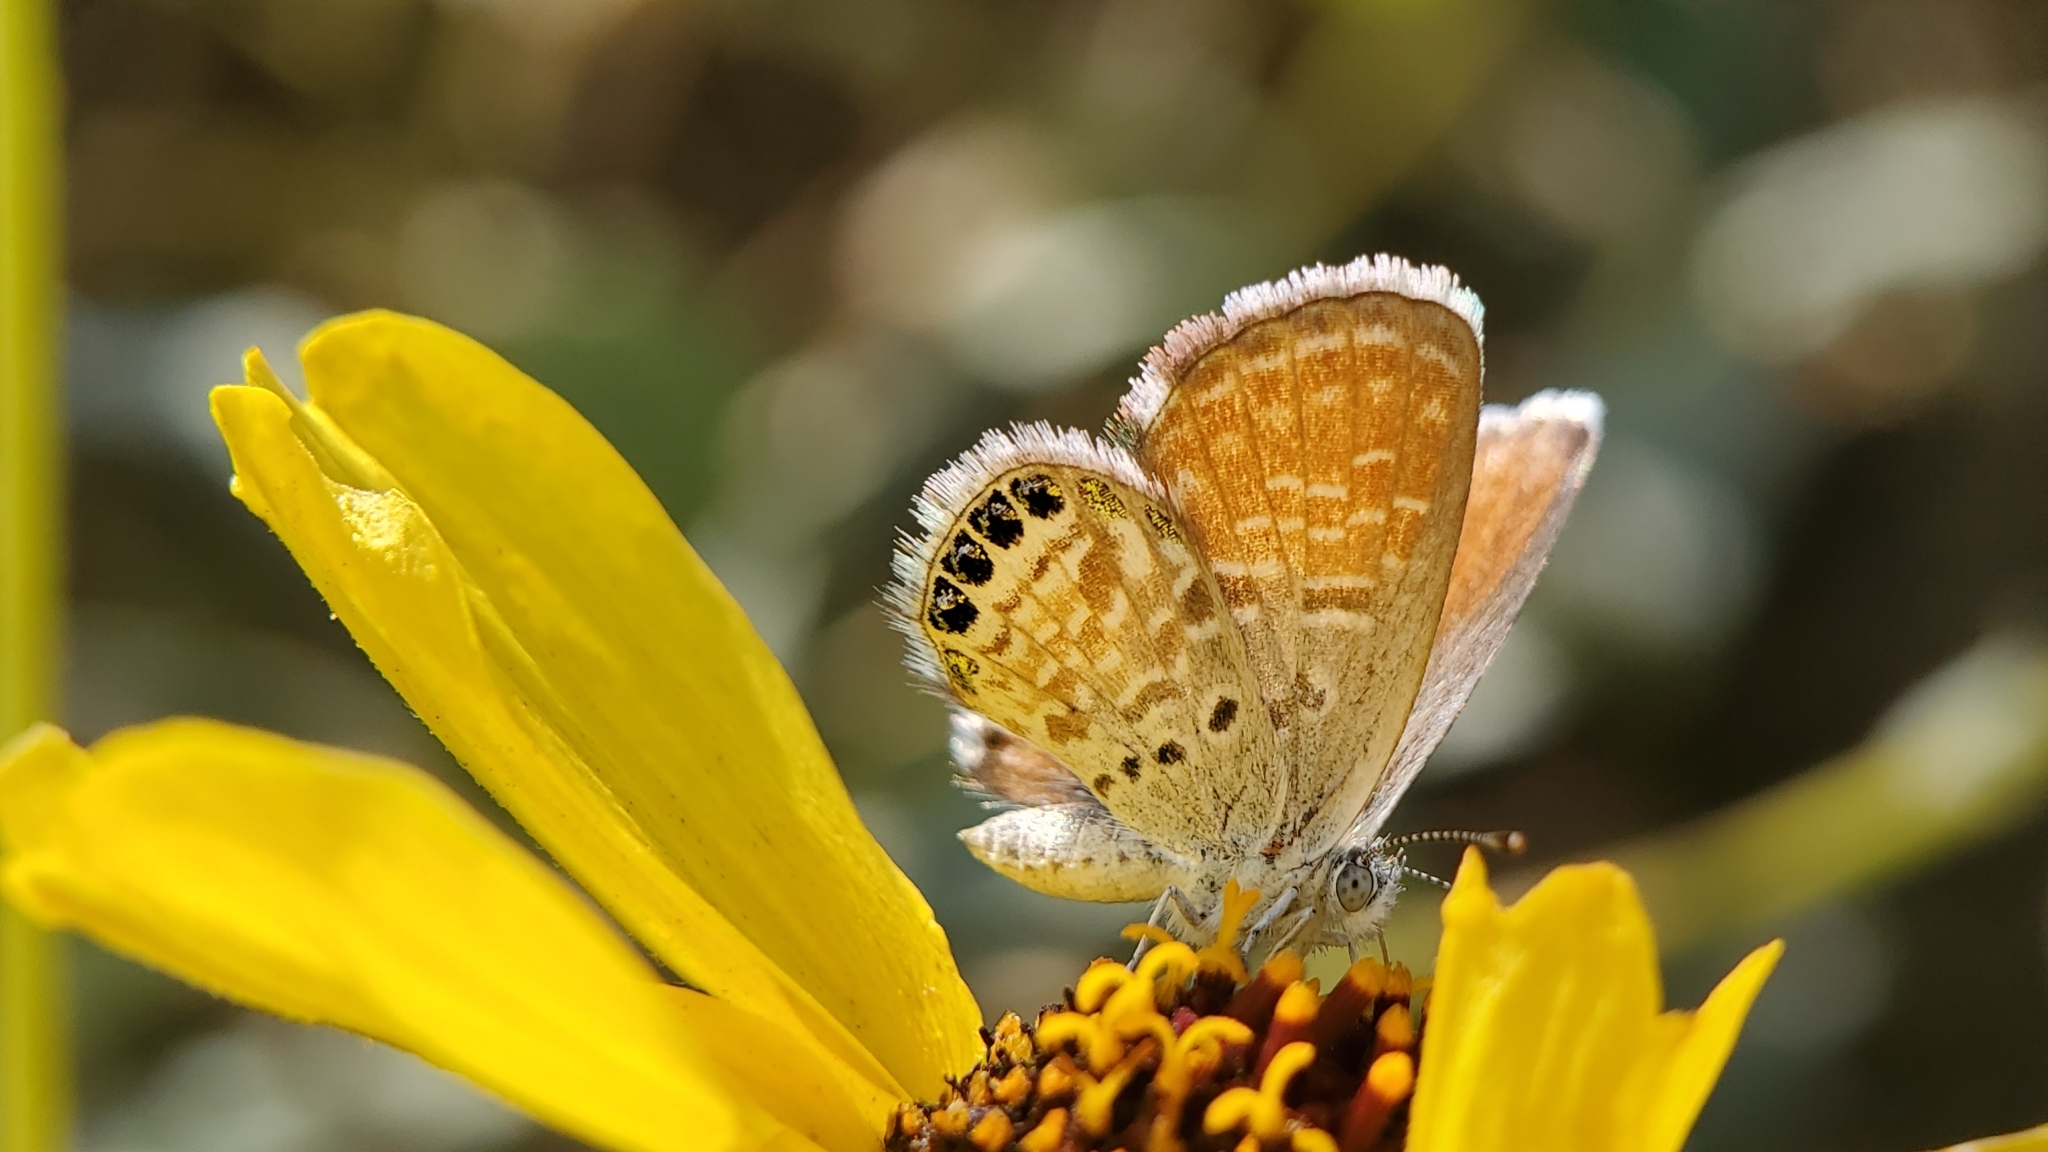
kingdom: Animalia
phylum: Arthropoda
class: Insecta
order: Lepidoptera
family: Lycaenidae
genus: Brephidium
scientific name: Brephidium exilis
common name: Pygmy blue
